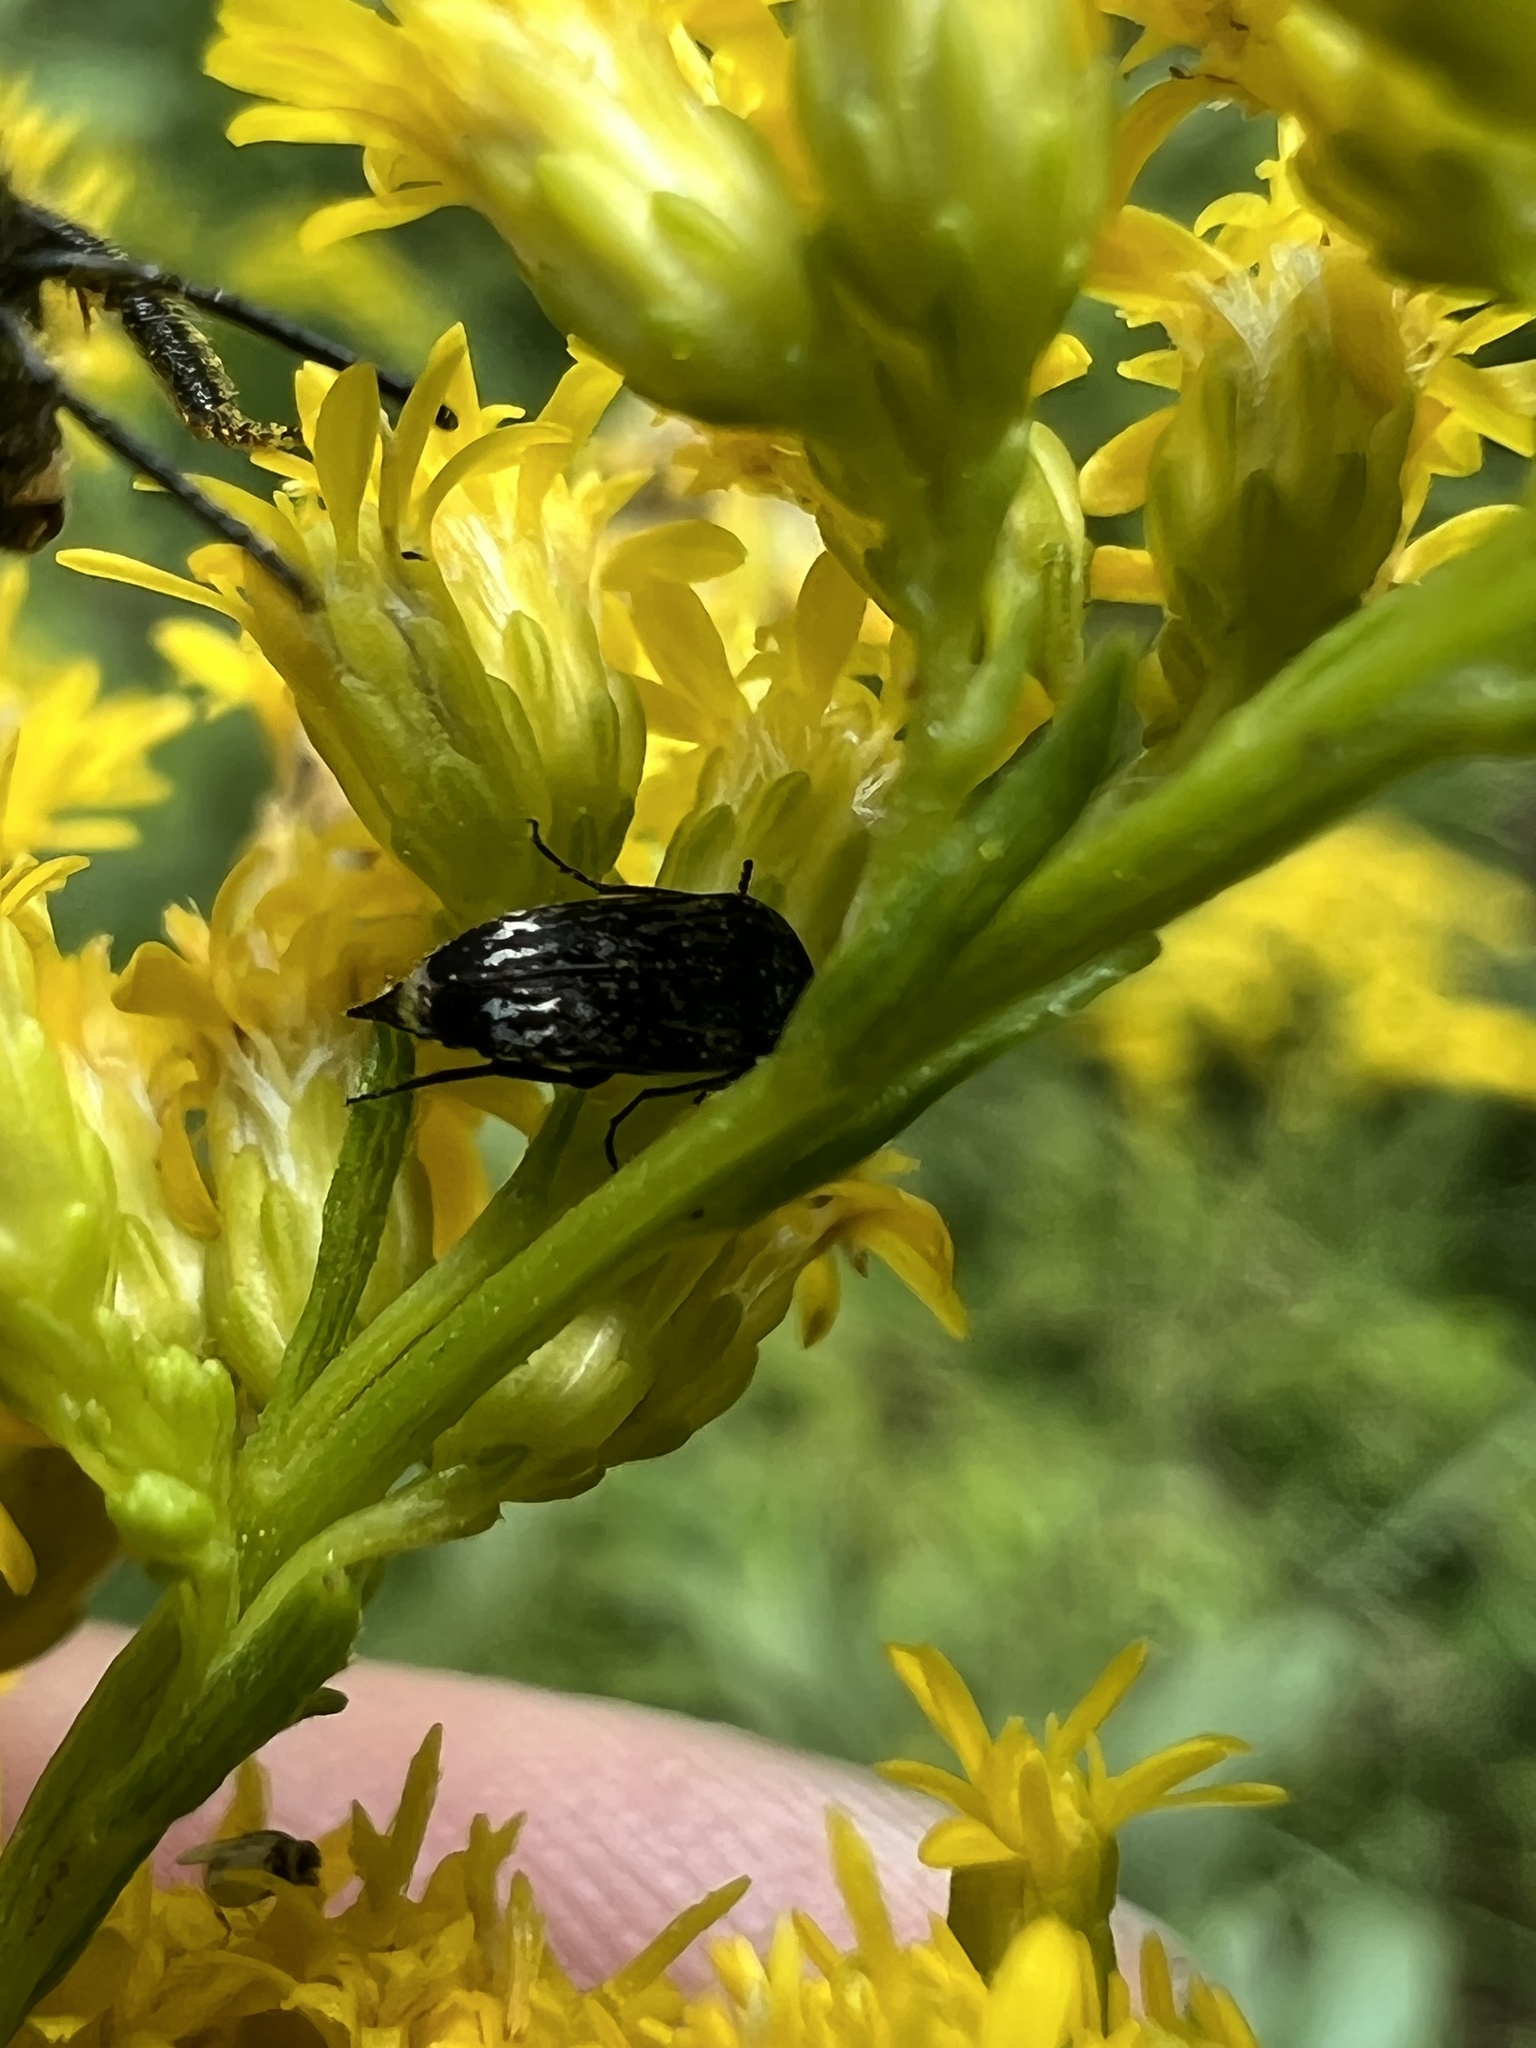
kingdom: Animalia
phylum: Arthropoda
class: Insecta
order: Coleoptera
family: Mordellidae
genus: Mordella
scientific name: Mordella marginata
